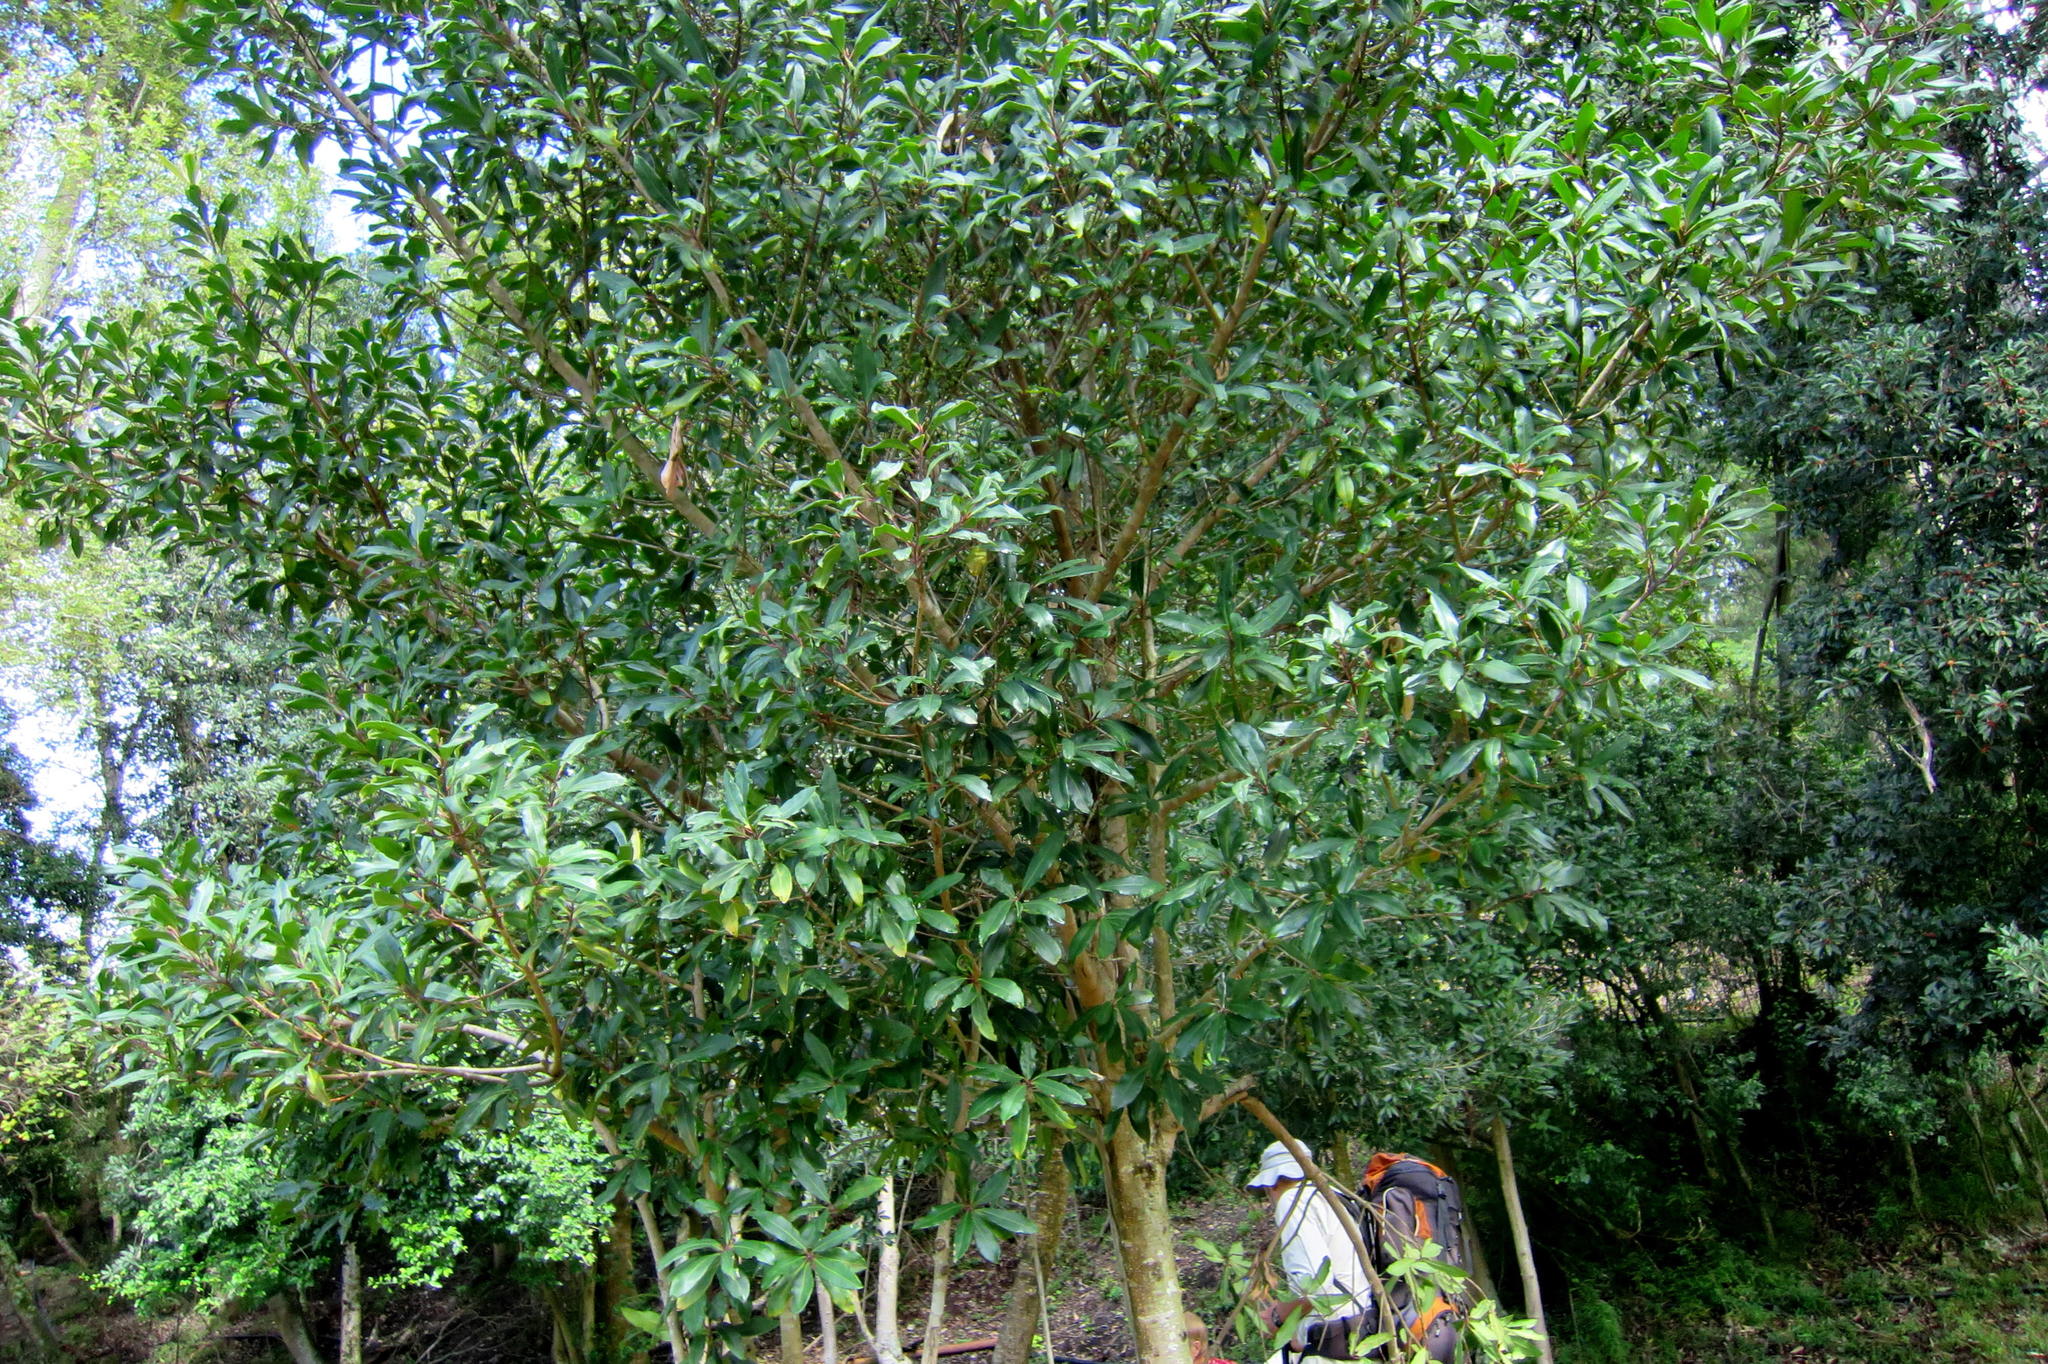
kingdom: Plantae
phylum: Tracheophyta
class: Magnoliopsida
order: Ericales
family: Primulaceae
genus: Myrsine
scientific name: Myrsine melanophloeos
